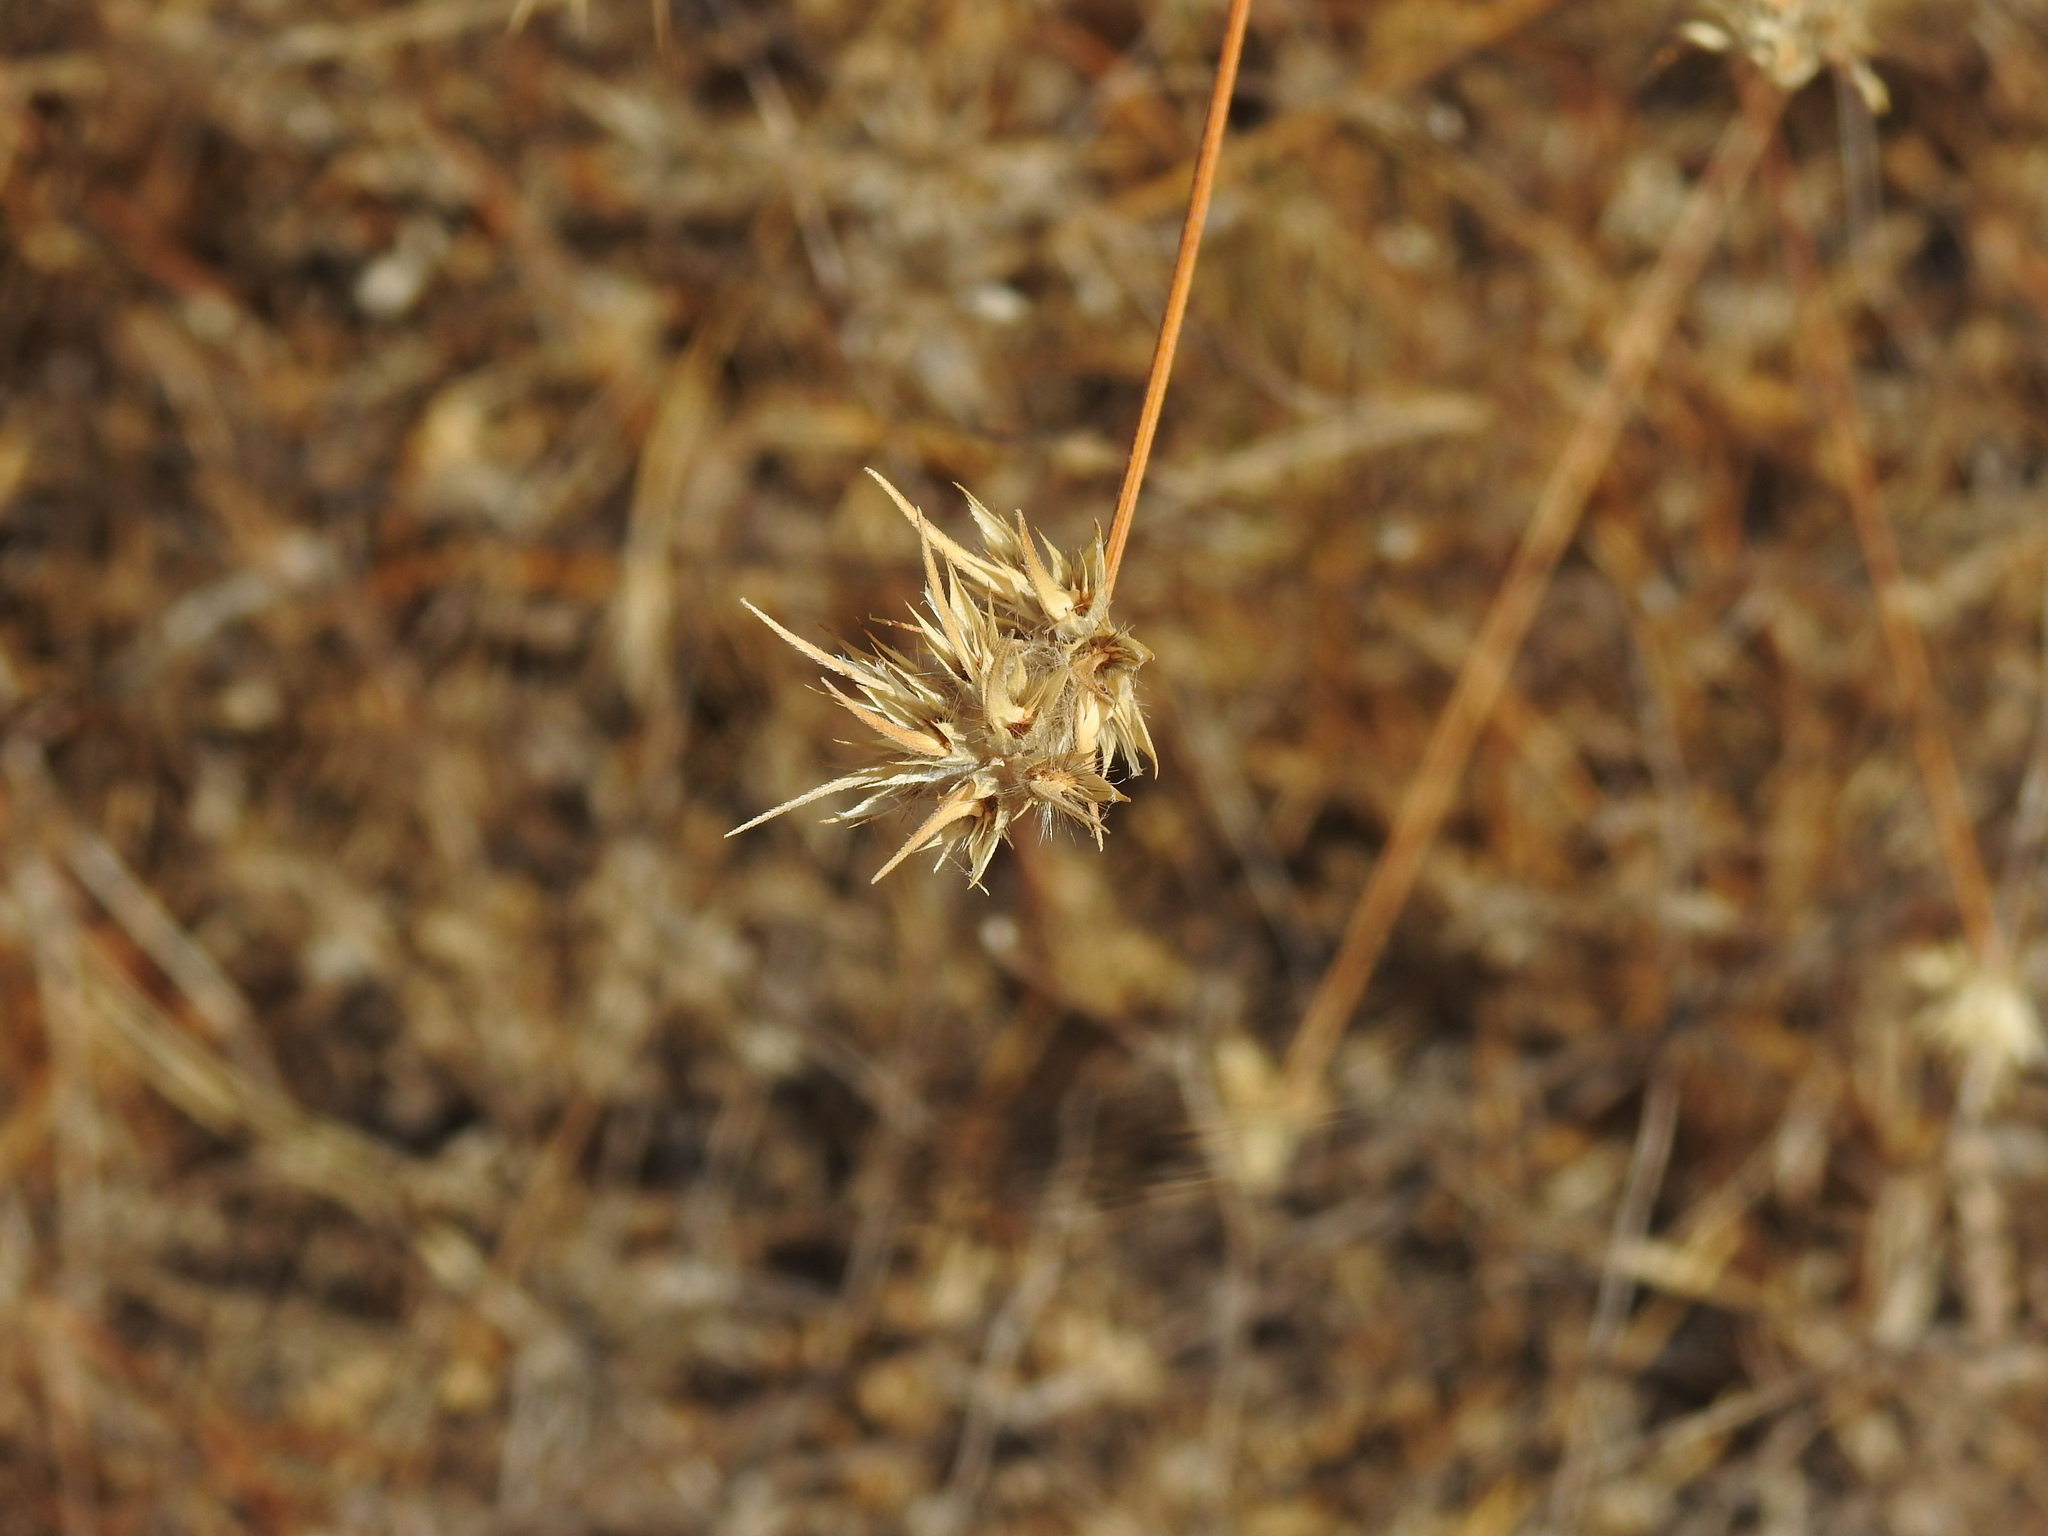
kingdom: Plantae
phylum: Tracheophyta
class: Magnoliopsida
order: Fabales
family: Fabaceae
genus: Bituminaria
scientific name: Bituminaria bituminosa
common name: Arabian pea
